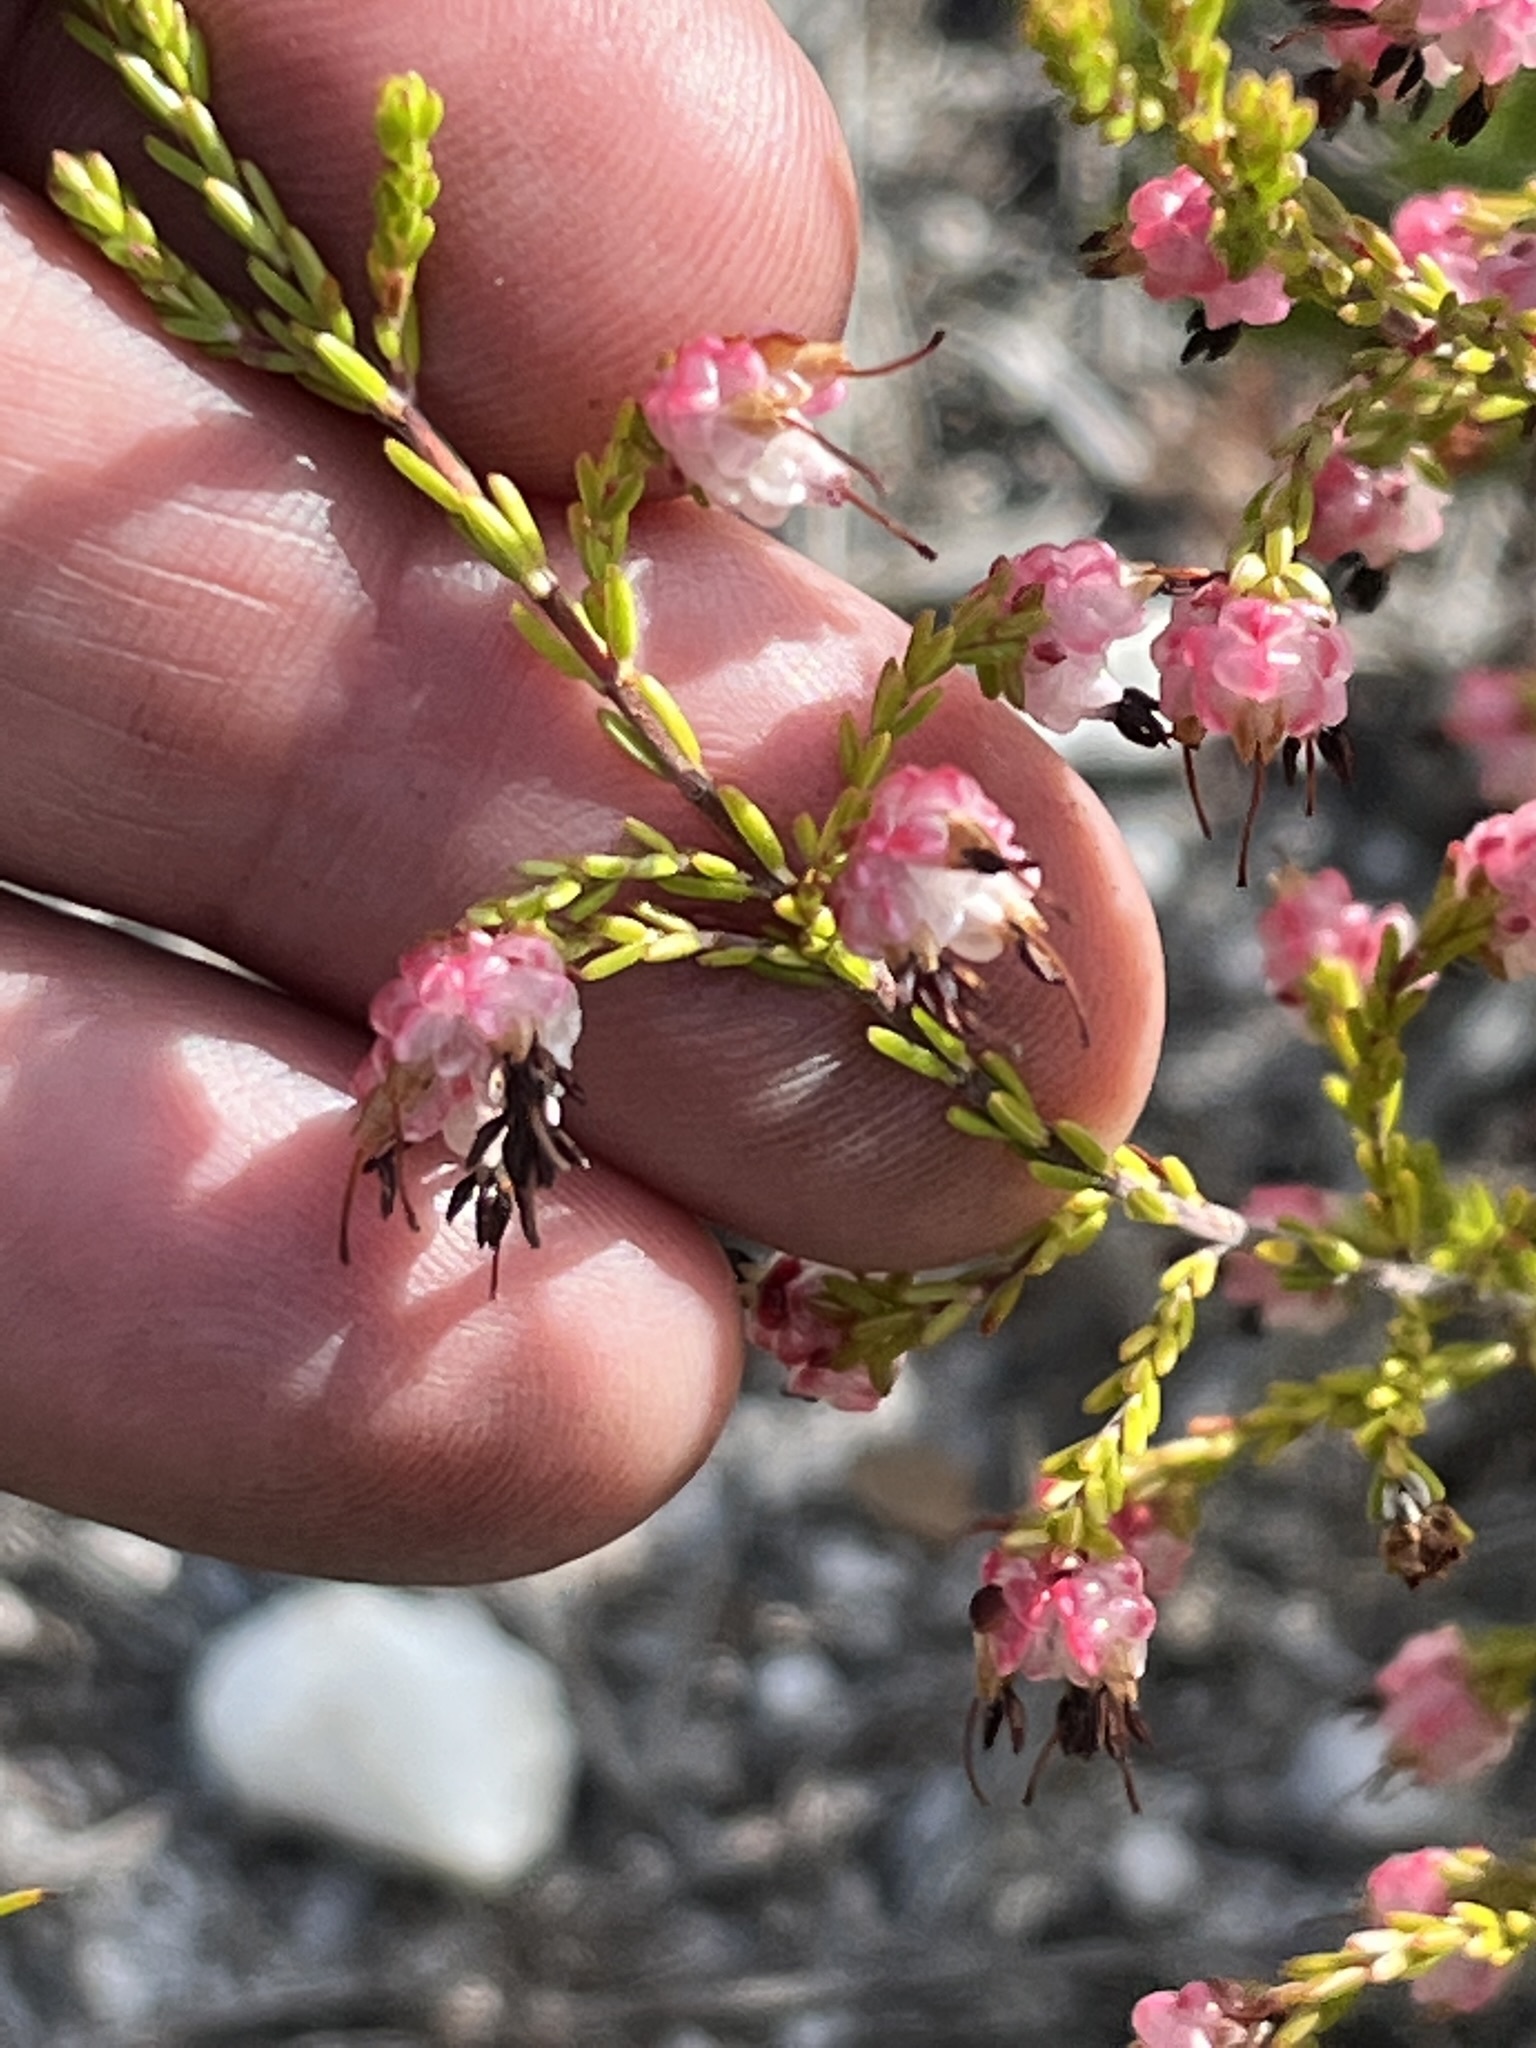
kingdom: Plantae
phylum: Tracheophyta
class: Magnoliopsida
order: Ericales
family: Ericaceae
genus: Erica
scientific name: Erica spumosa
